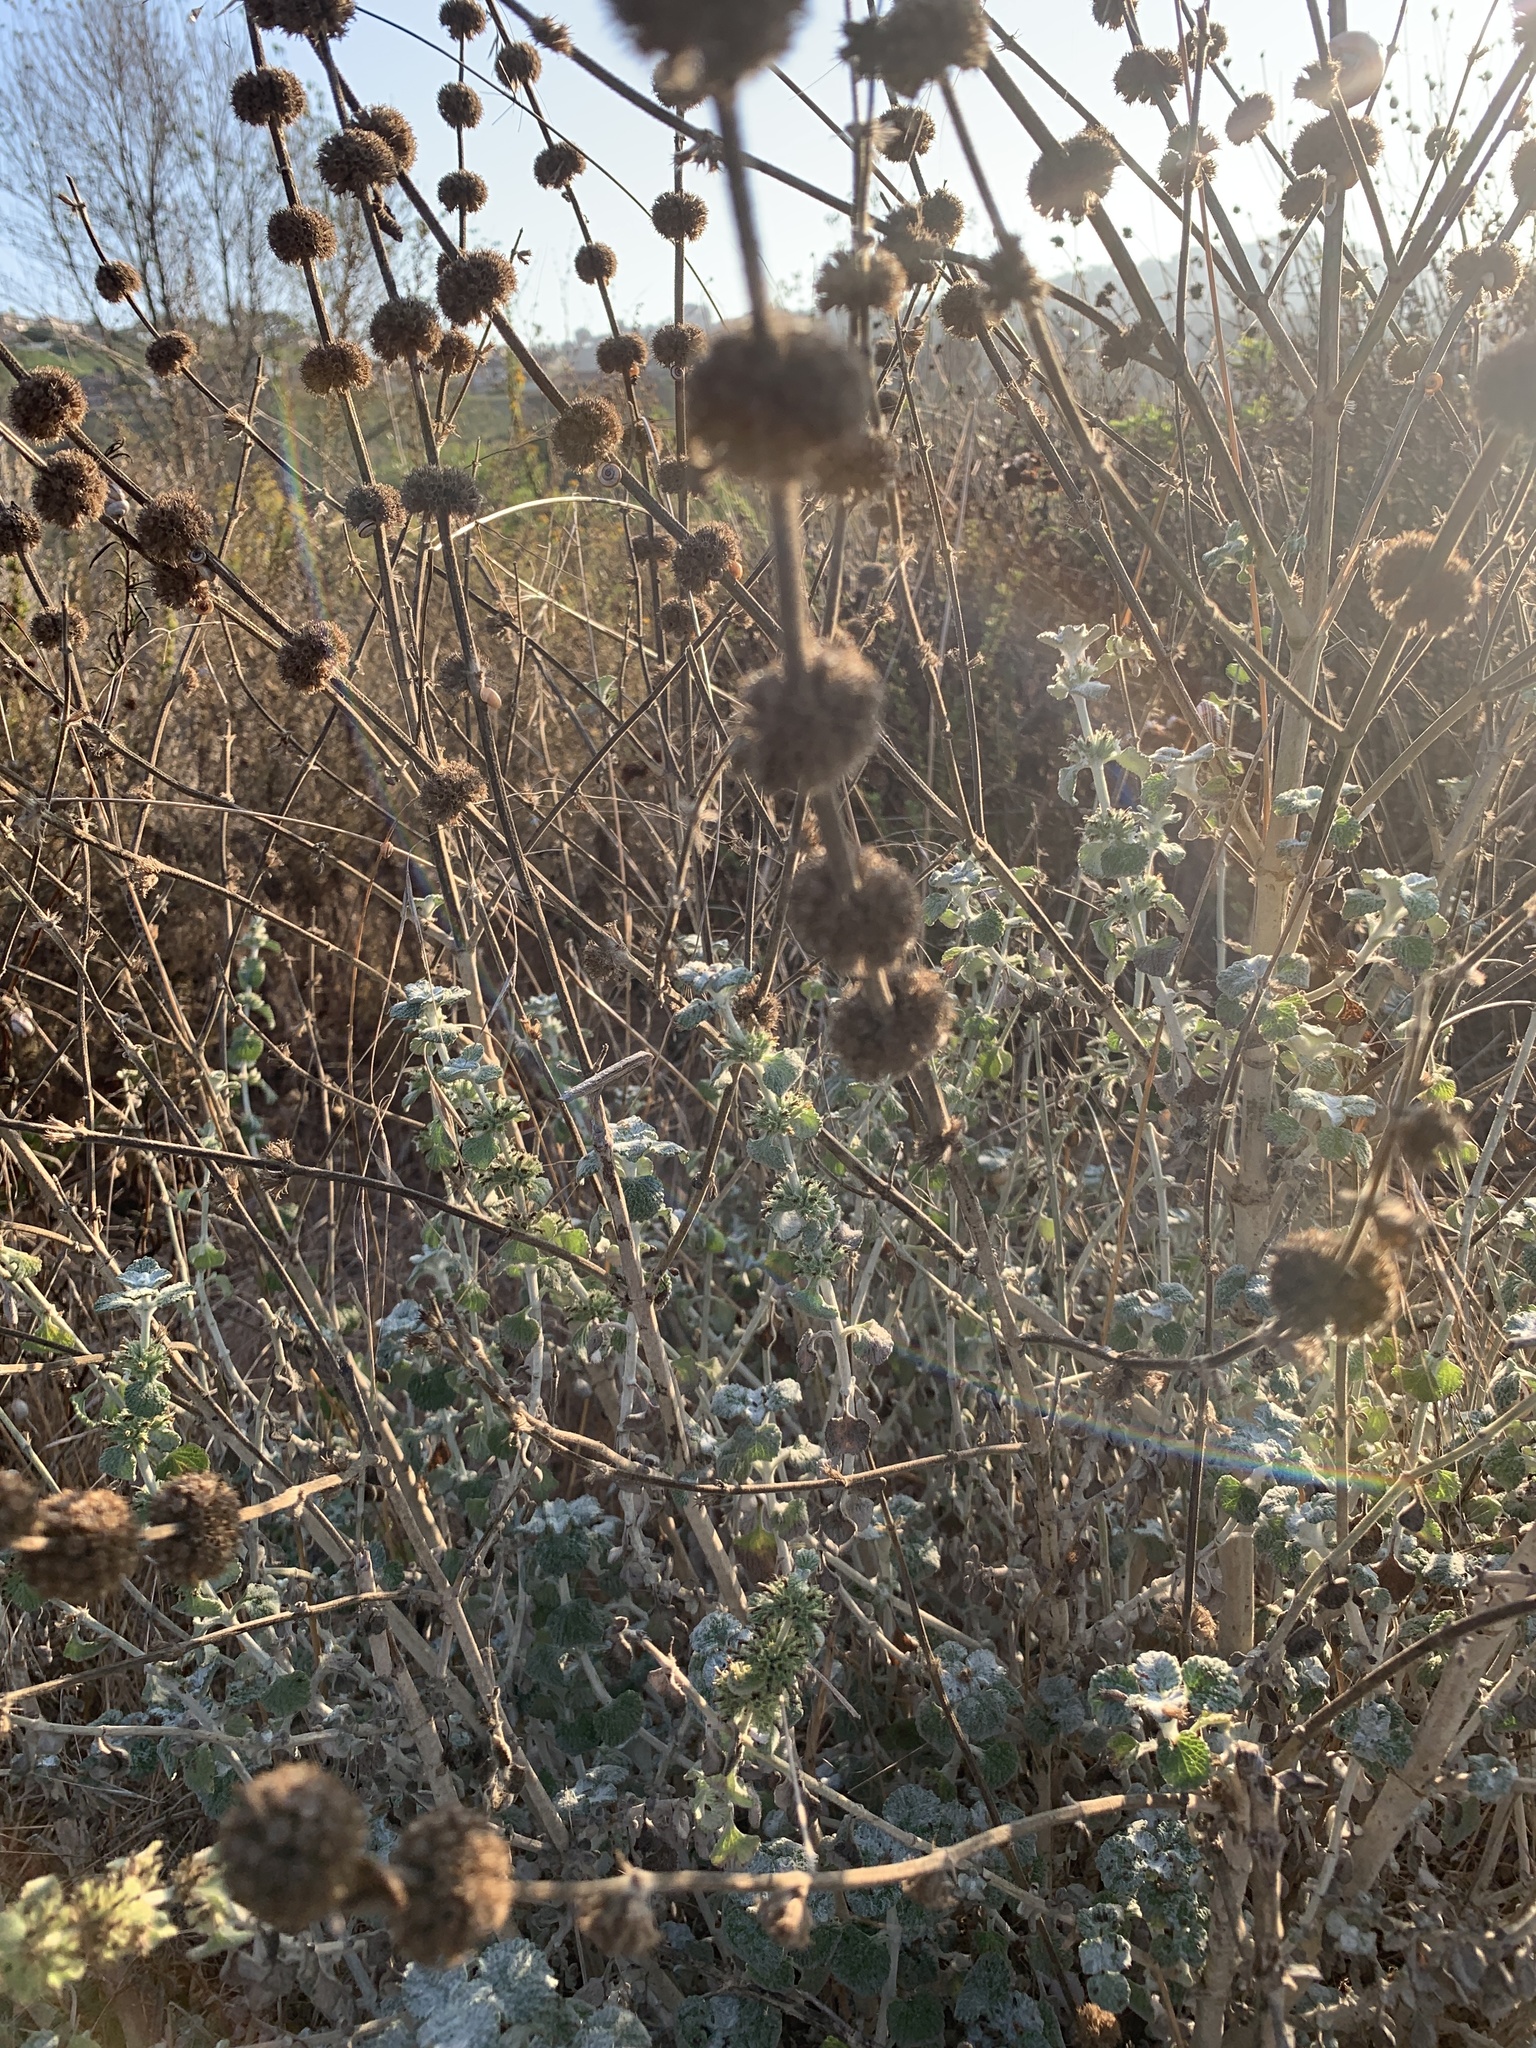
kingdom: Plantae
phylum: Tracheophyta
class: Magnoliopsida
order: Lamiales
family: Lamiaceae
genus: Marrubium
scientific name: Marrubium vulgare
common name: Horehound
